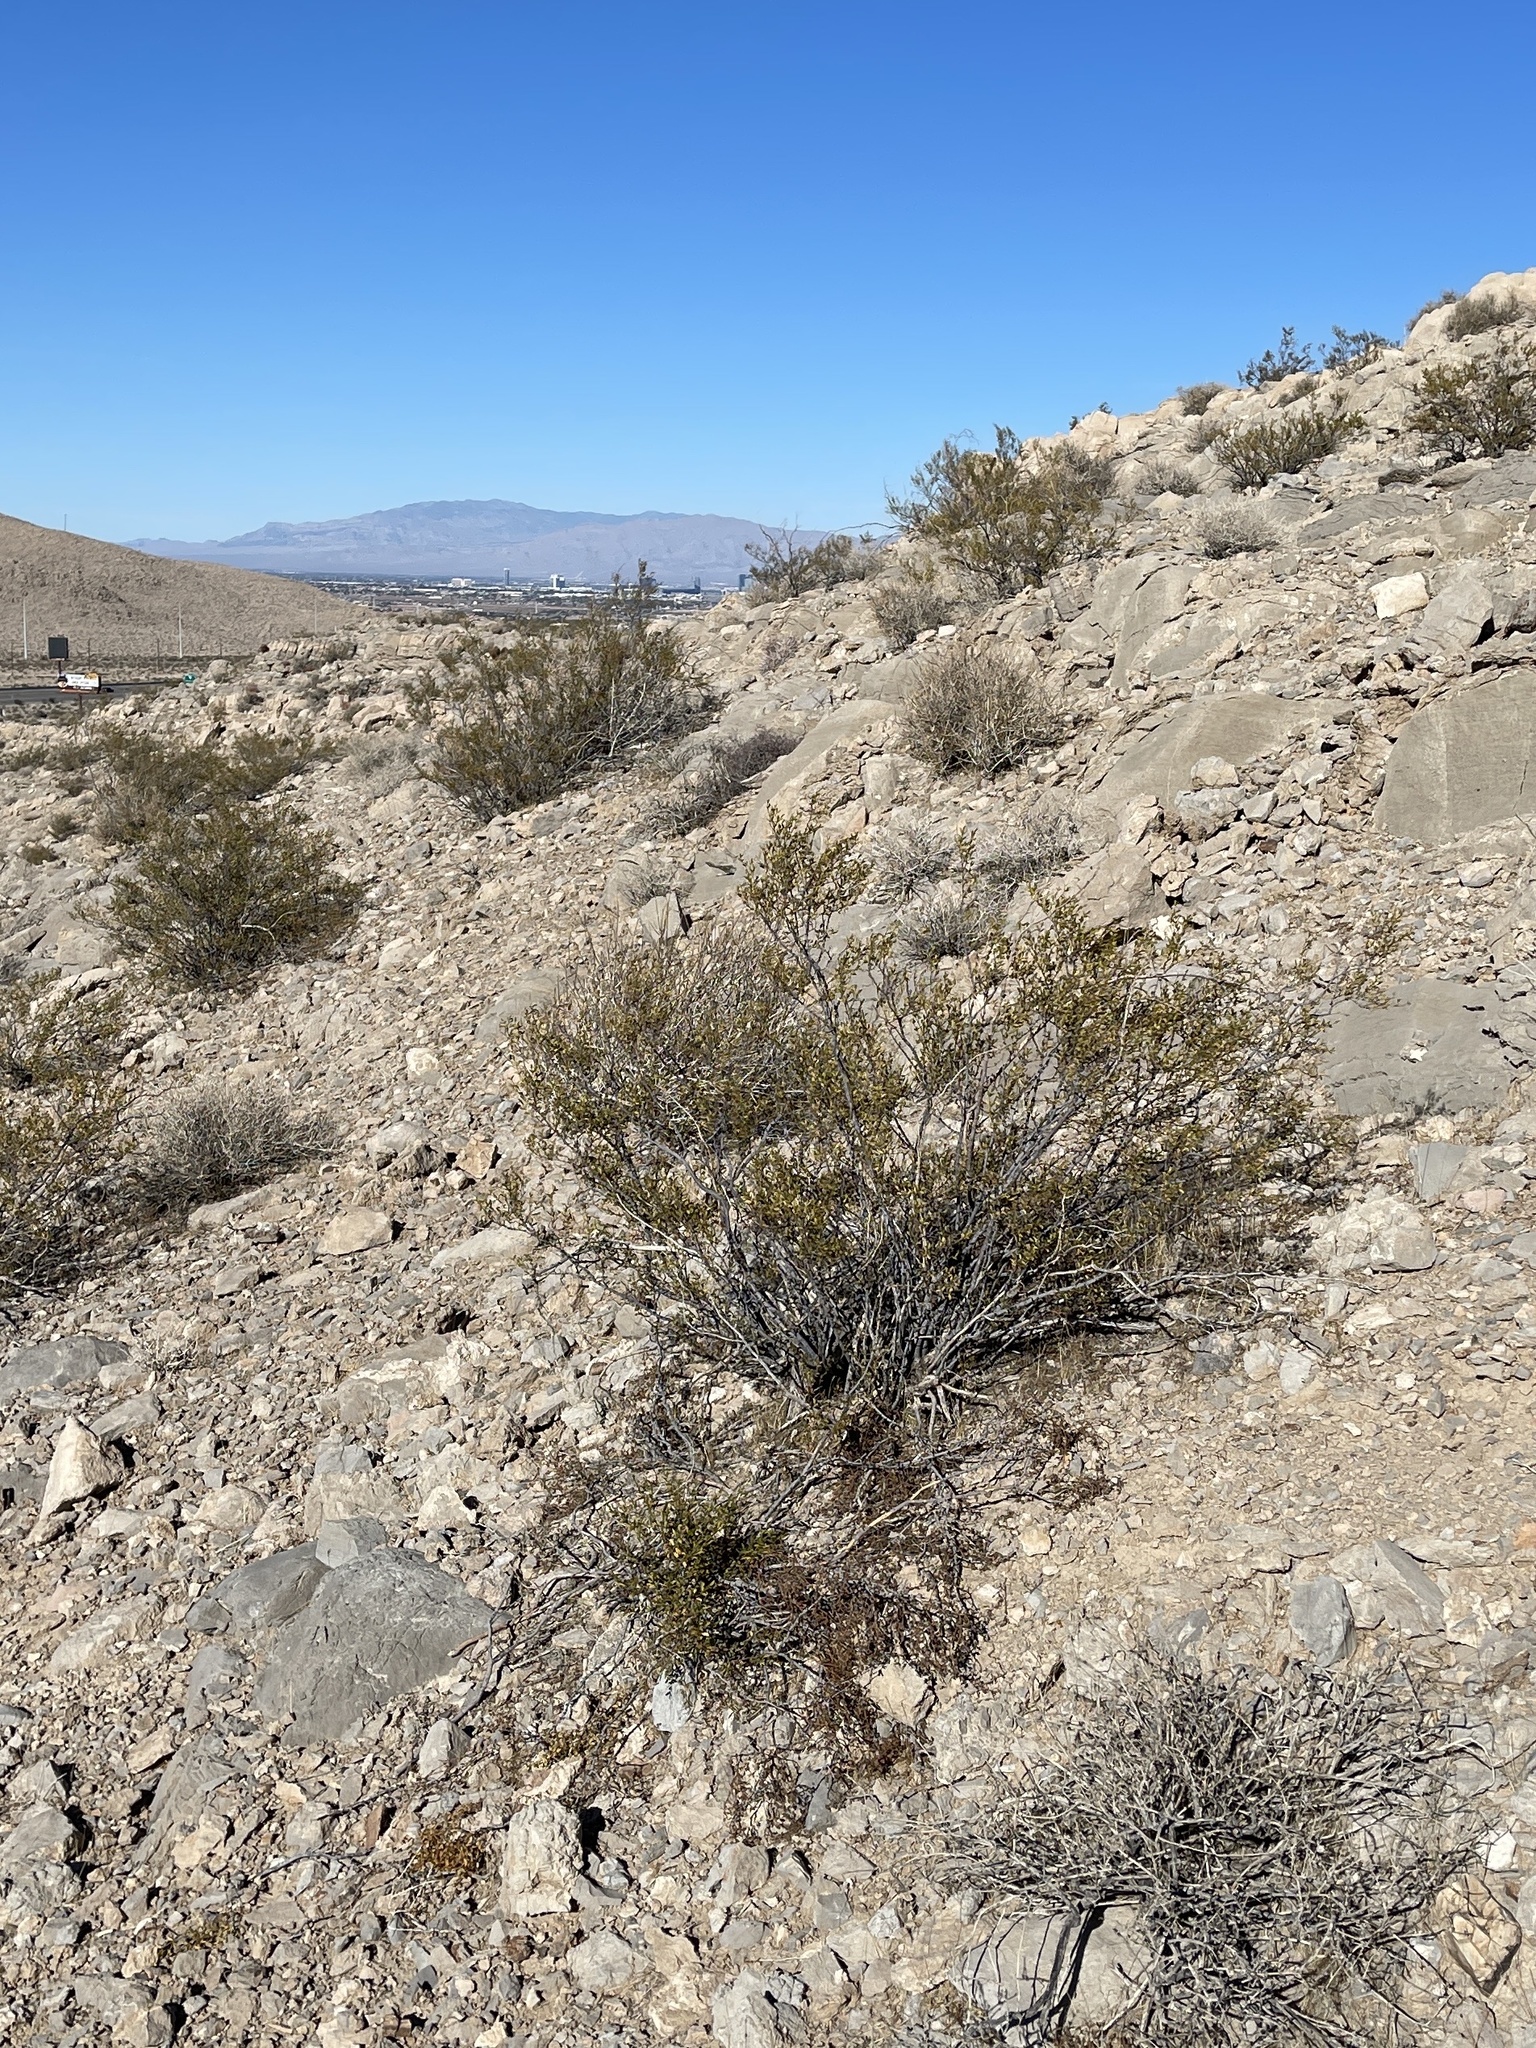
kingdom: Plantae
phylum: Tracheophyta
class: Magnoliopsida
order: Zygophyllales
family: Zygophyllaceae
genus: Larrea
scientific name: Larrea tridentata
